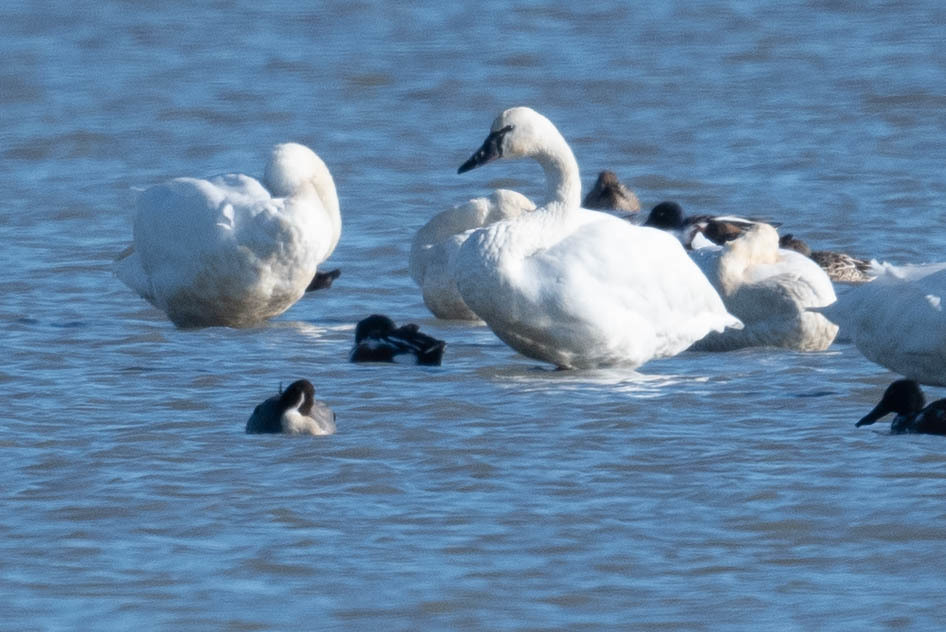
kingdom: Animalia
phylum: Chordata
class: Aves
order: Anseriformes
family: Anatidae
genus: Cygnus
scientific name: Cygnus columbianus
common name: Tundra swan
